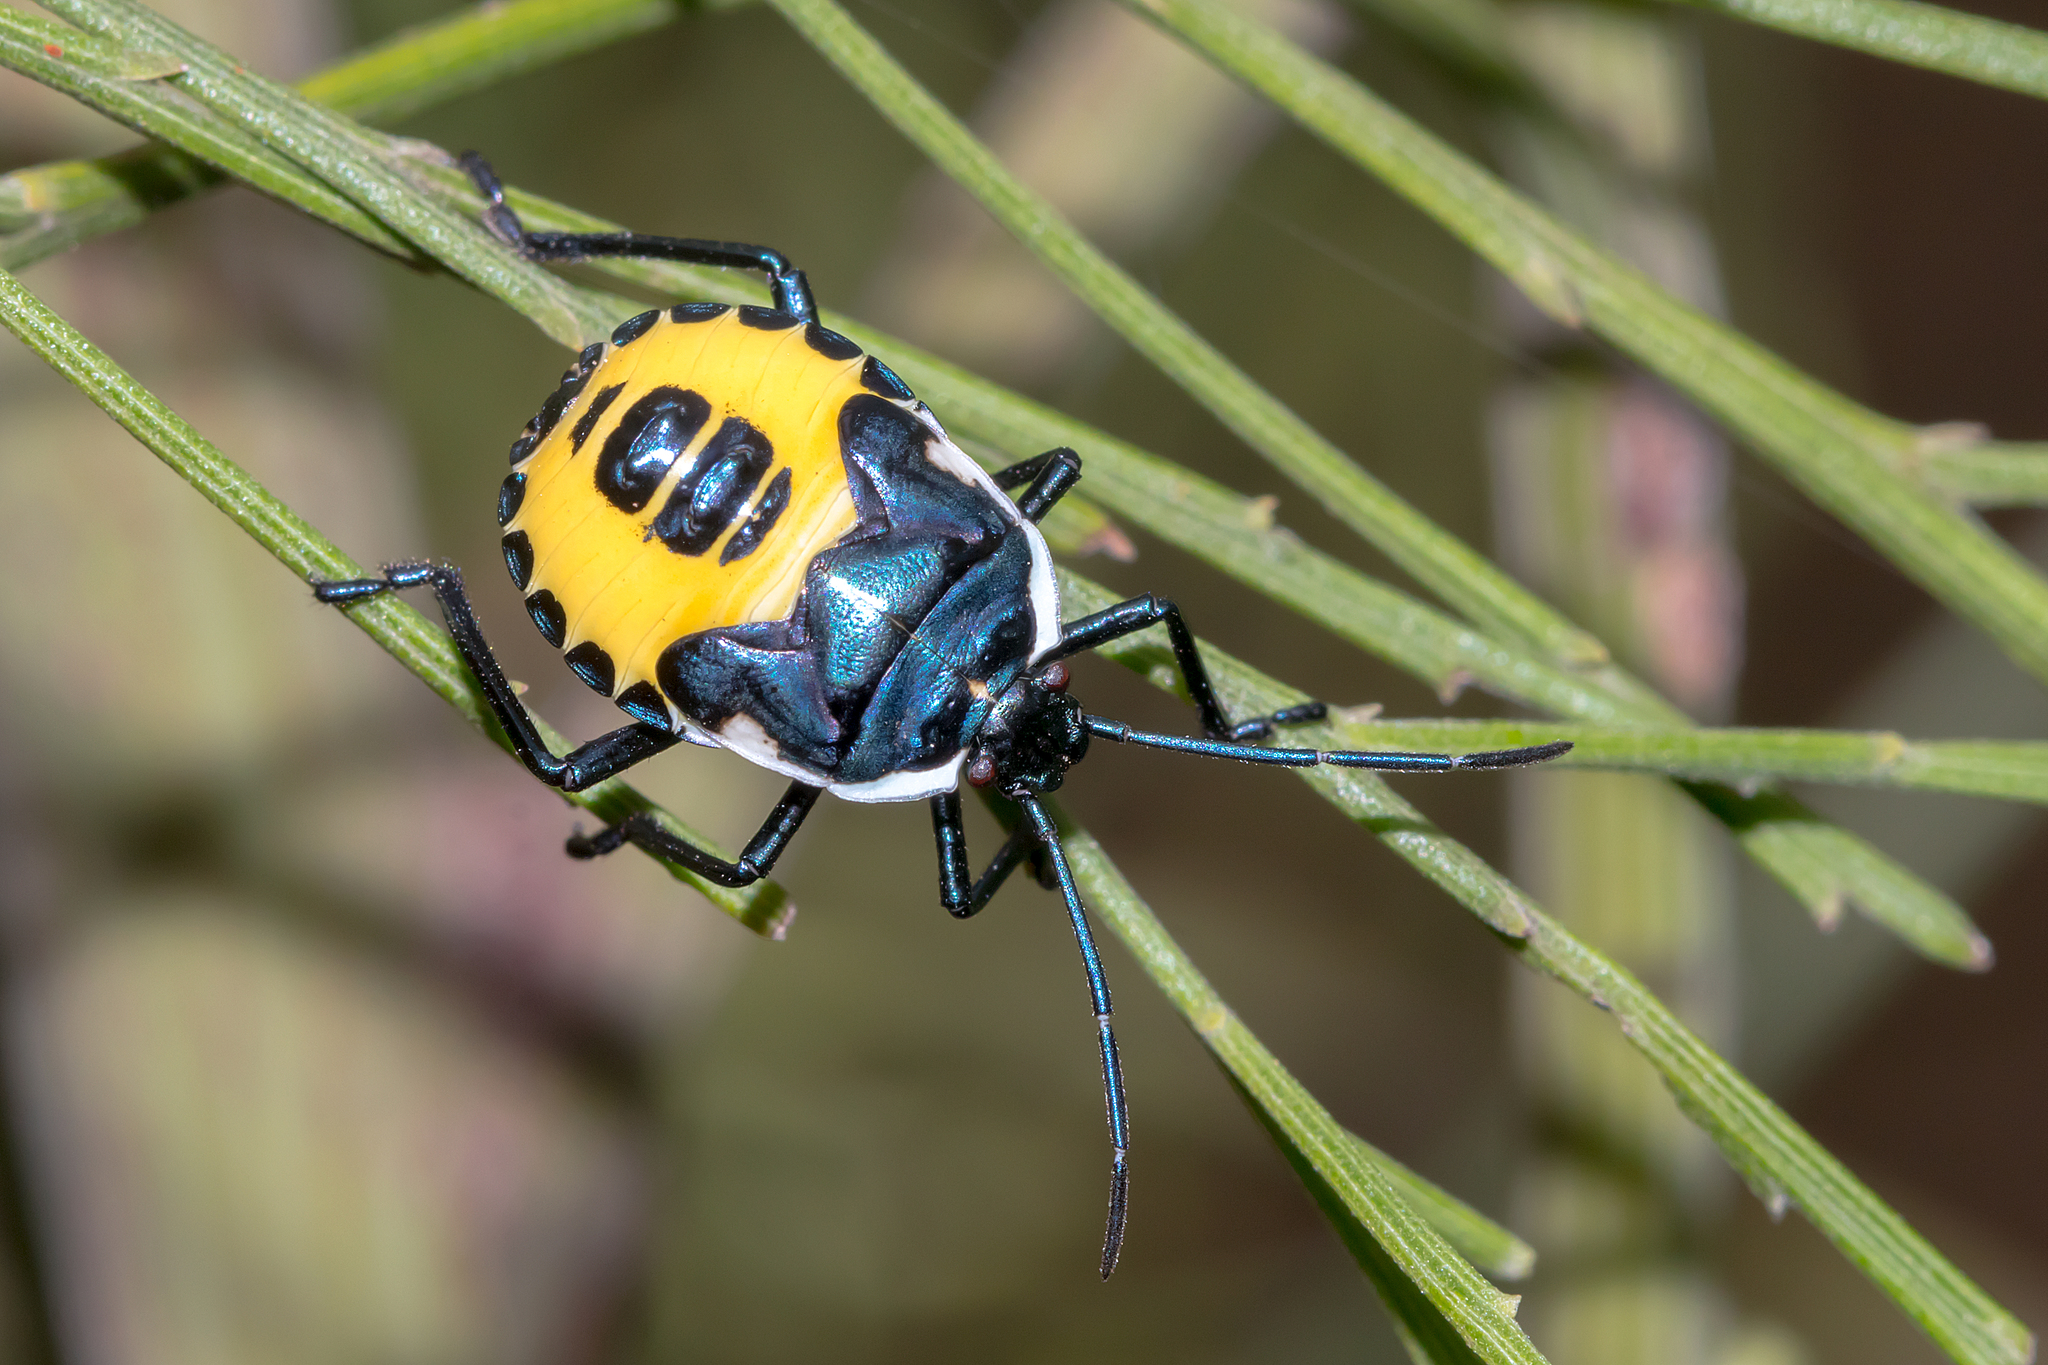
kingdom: Animalia
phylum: Arthropoda
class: Insecta
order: Hemiptera
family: Pentatomidae
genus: Commius
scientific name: Commius
